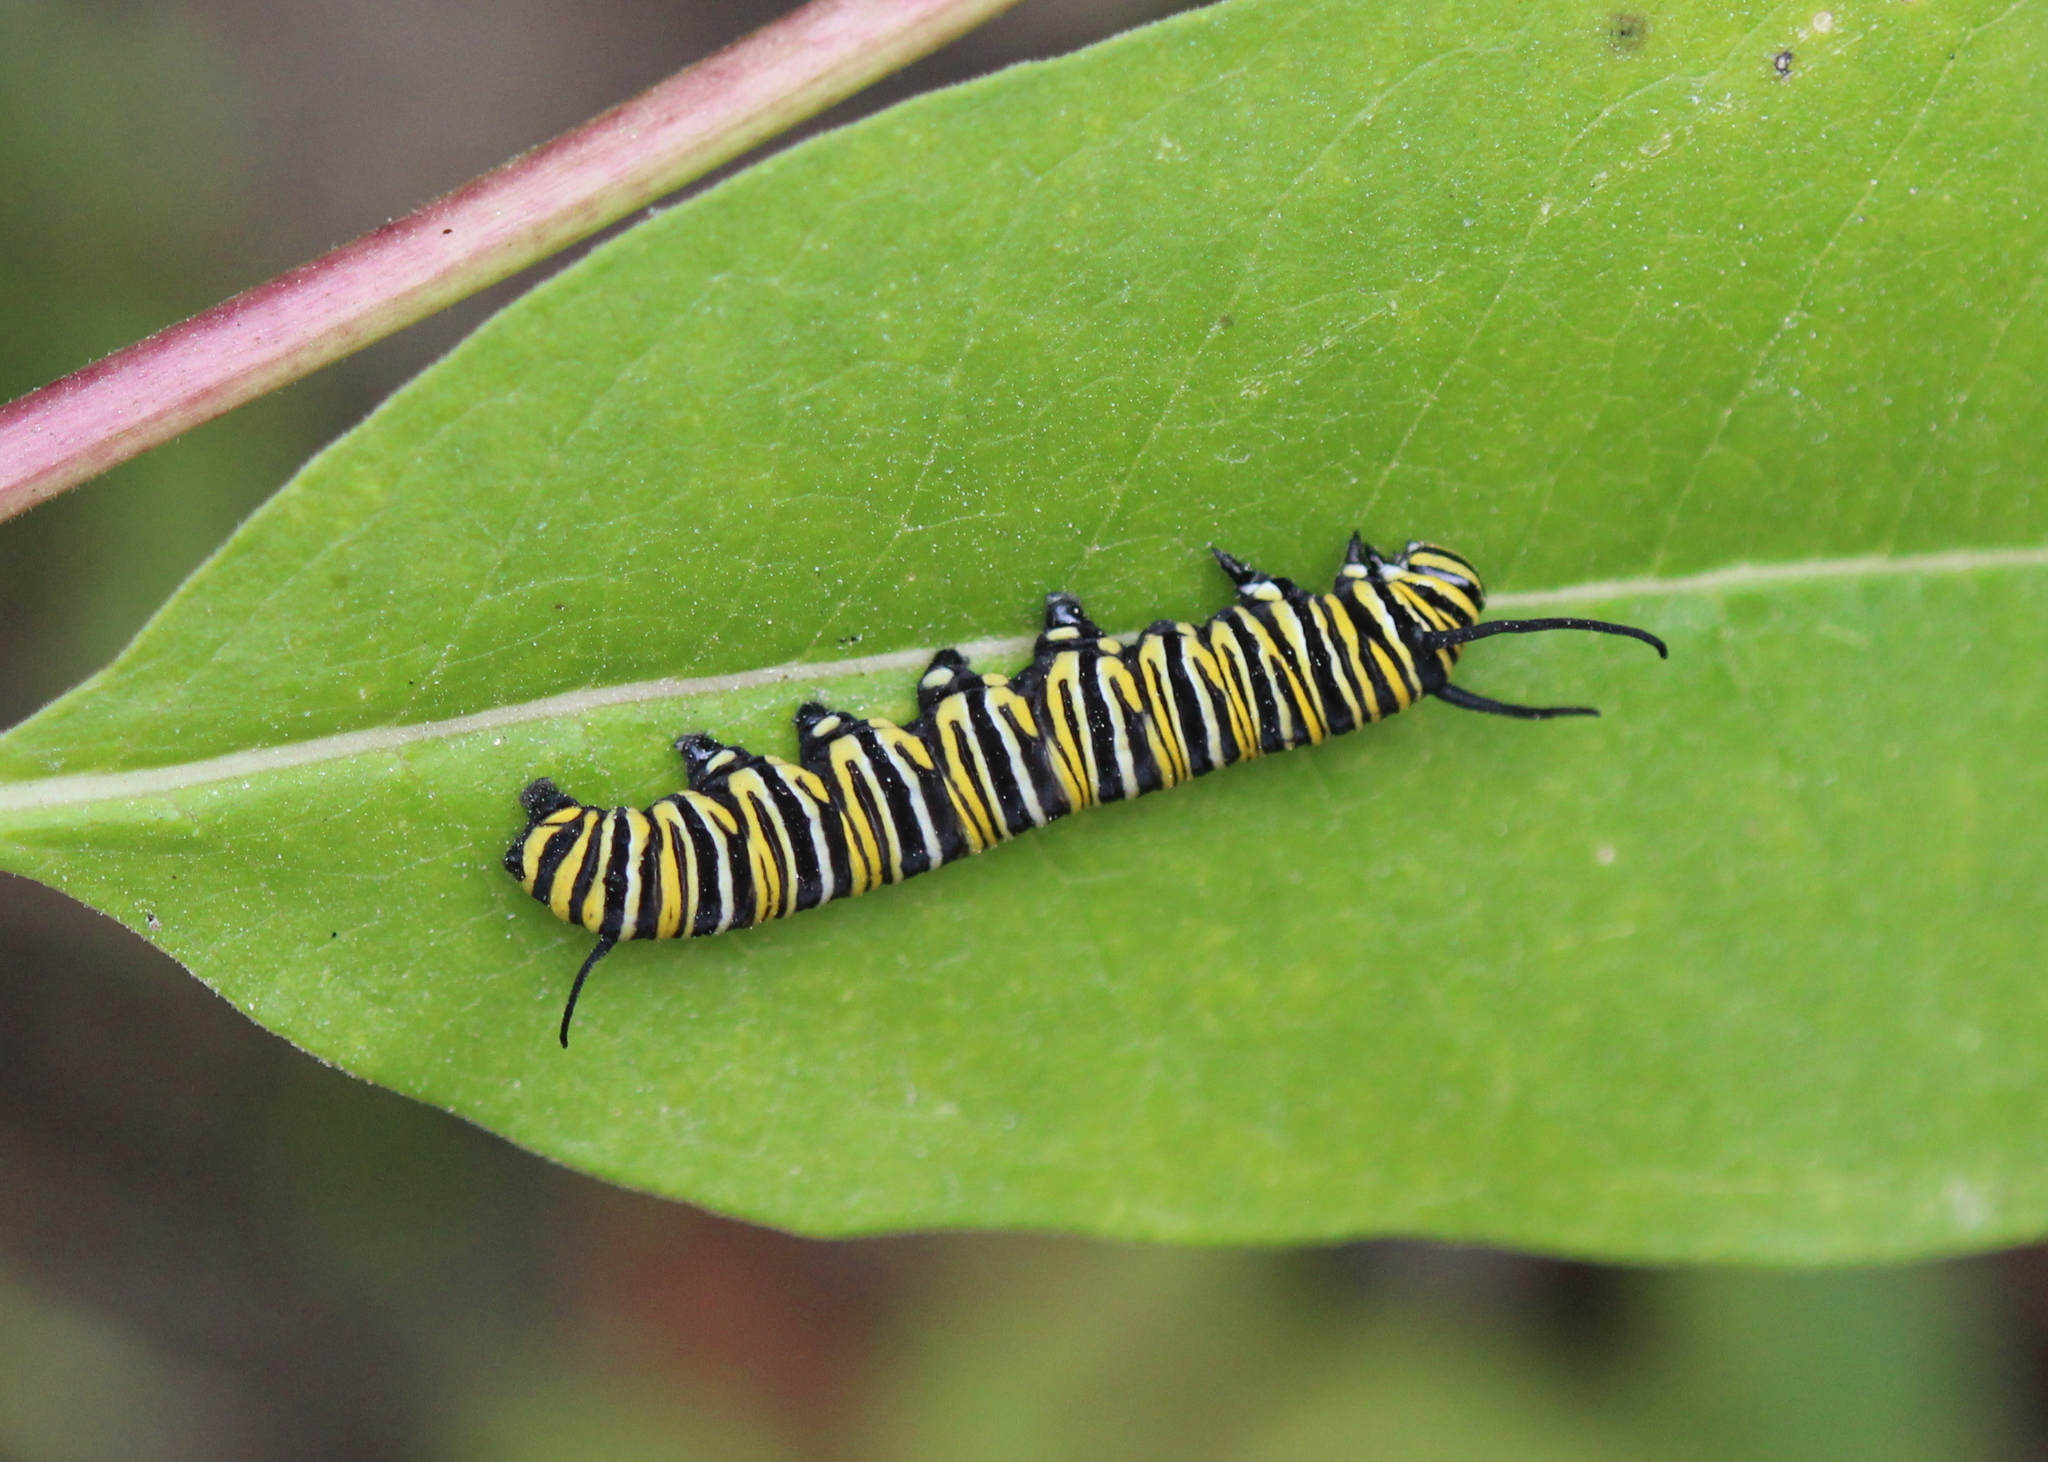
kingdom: Animalia
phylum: Arthropoda
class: Insecta
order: Lepidoptera
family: Nymphalidae
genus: Danaus
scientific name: Danaus plexippus
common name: Monarch
